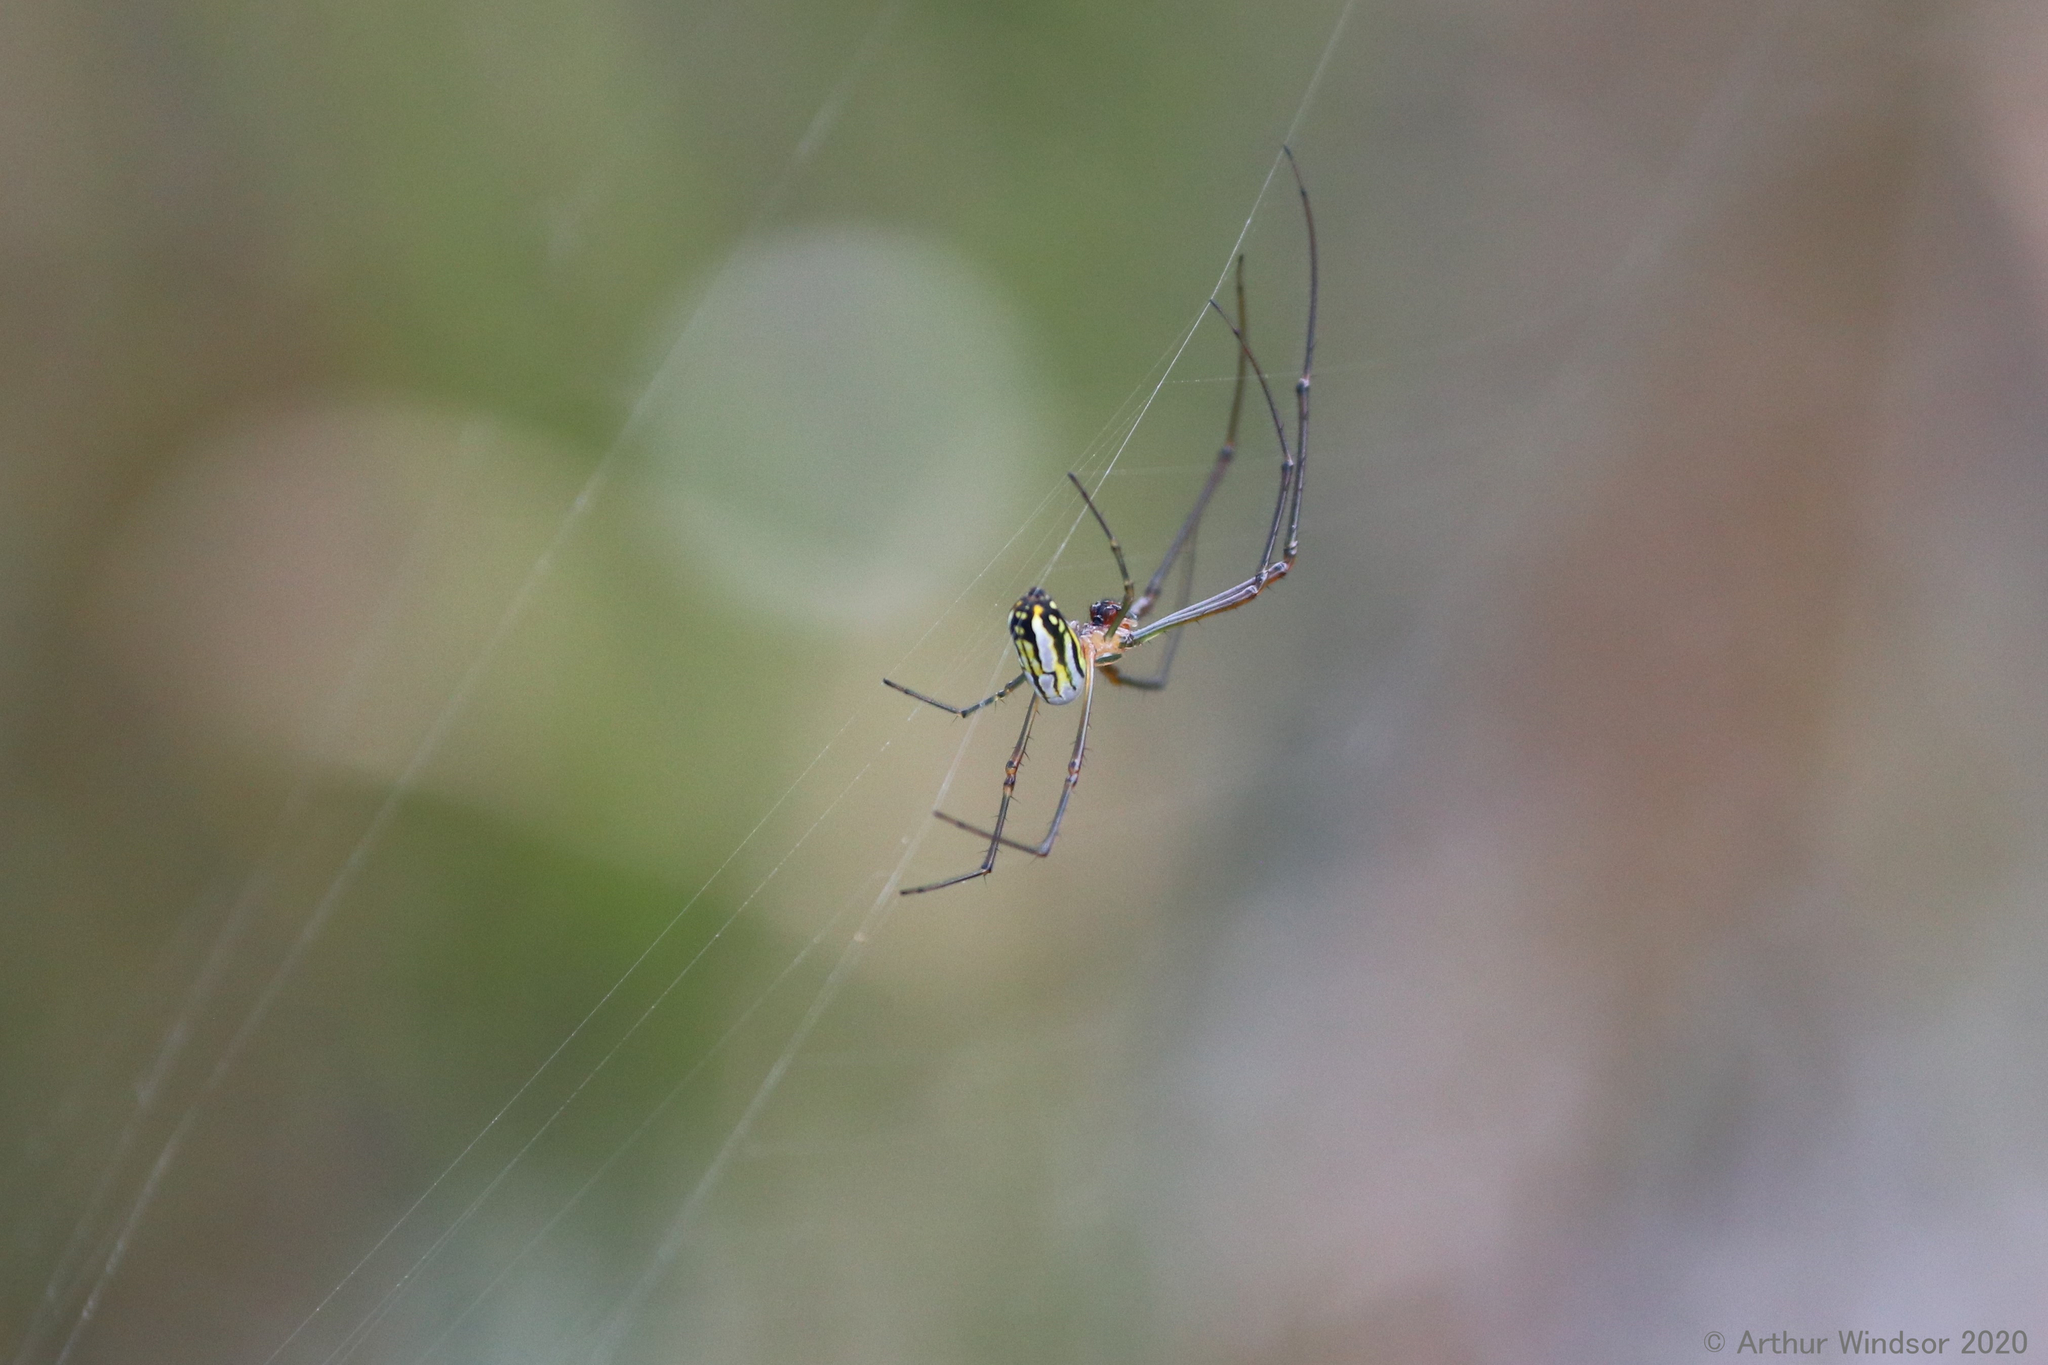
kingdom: Animalia
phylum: Arthropoda
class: Arachnida
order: Araneae
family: Tetragnathidae
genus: Leucauge
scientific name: Leucauge argyra
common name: Longjawed orb weavers
